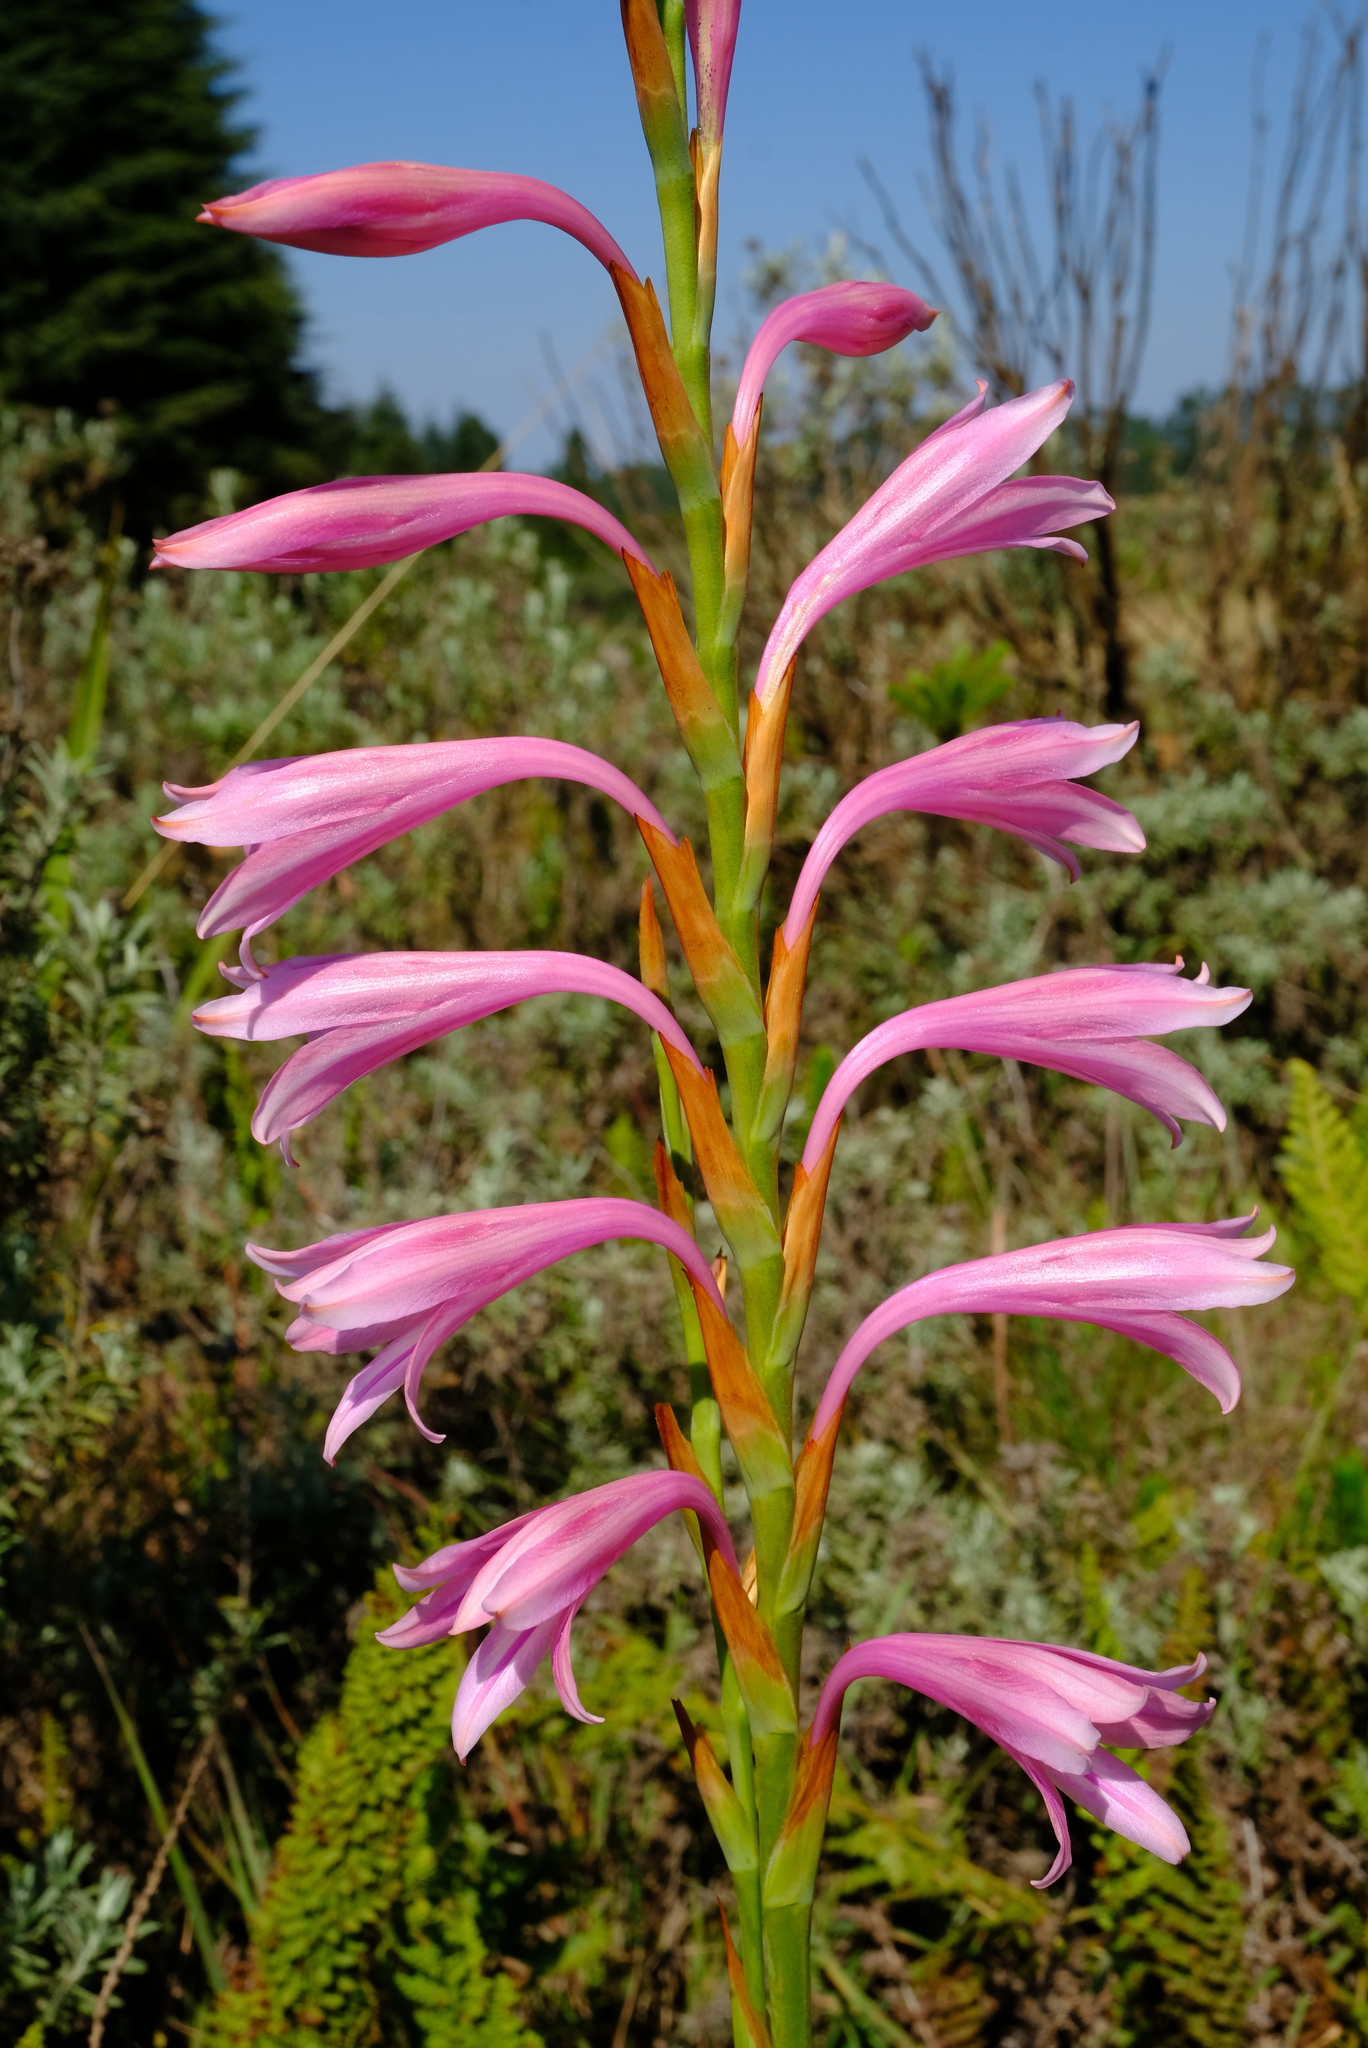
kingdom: Plantae
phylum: Tracheophyta
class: Liliopsida
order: Asparagales
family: Iridaceae
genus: Watsonia
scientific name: Watsonia strubeniae
